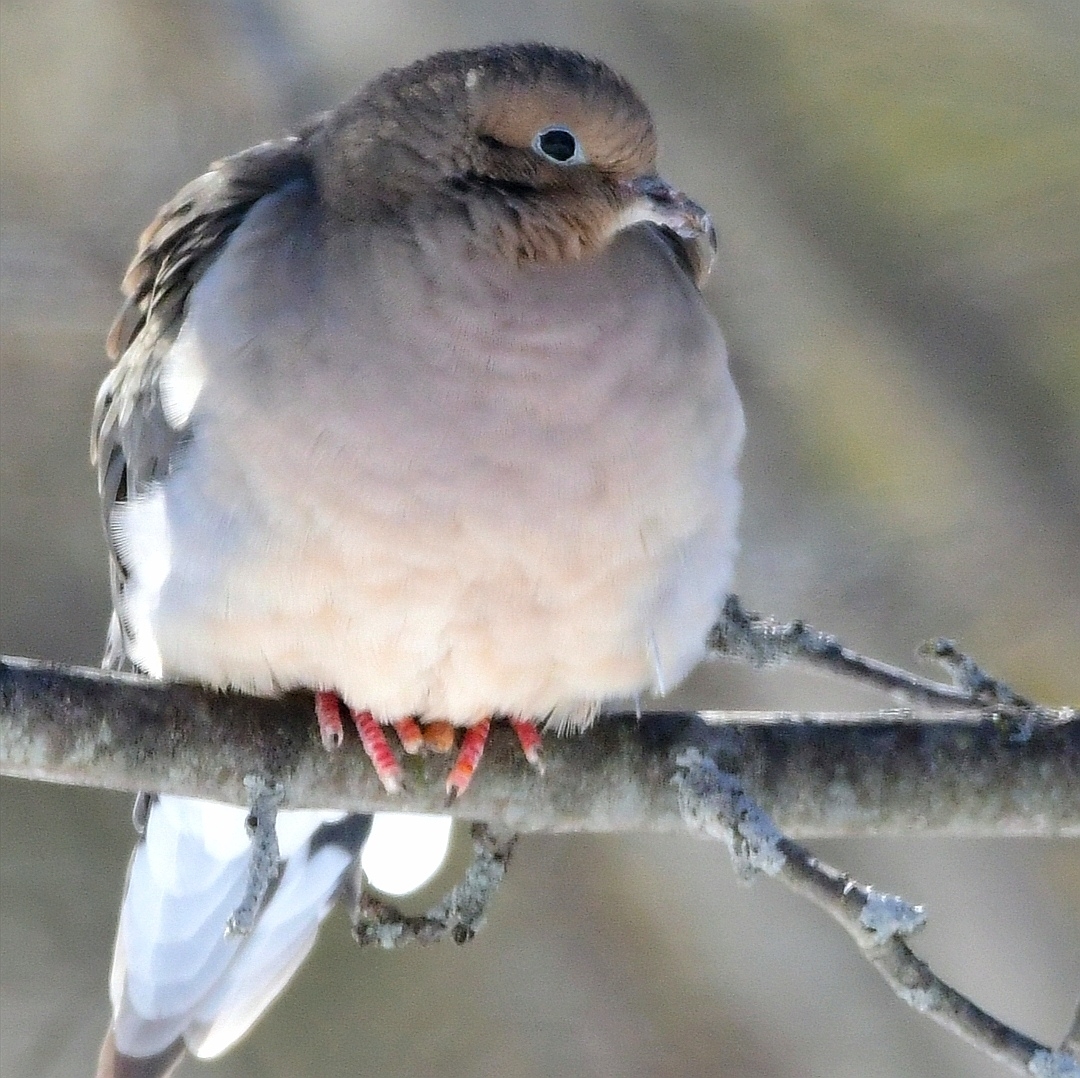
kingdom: Animalia
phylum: Chordata
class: Aves
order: Columbiformes
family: Columbidae
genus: Zenaida
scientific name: Zenaida macroura
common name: Mourning dove
